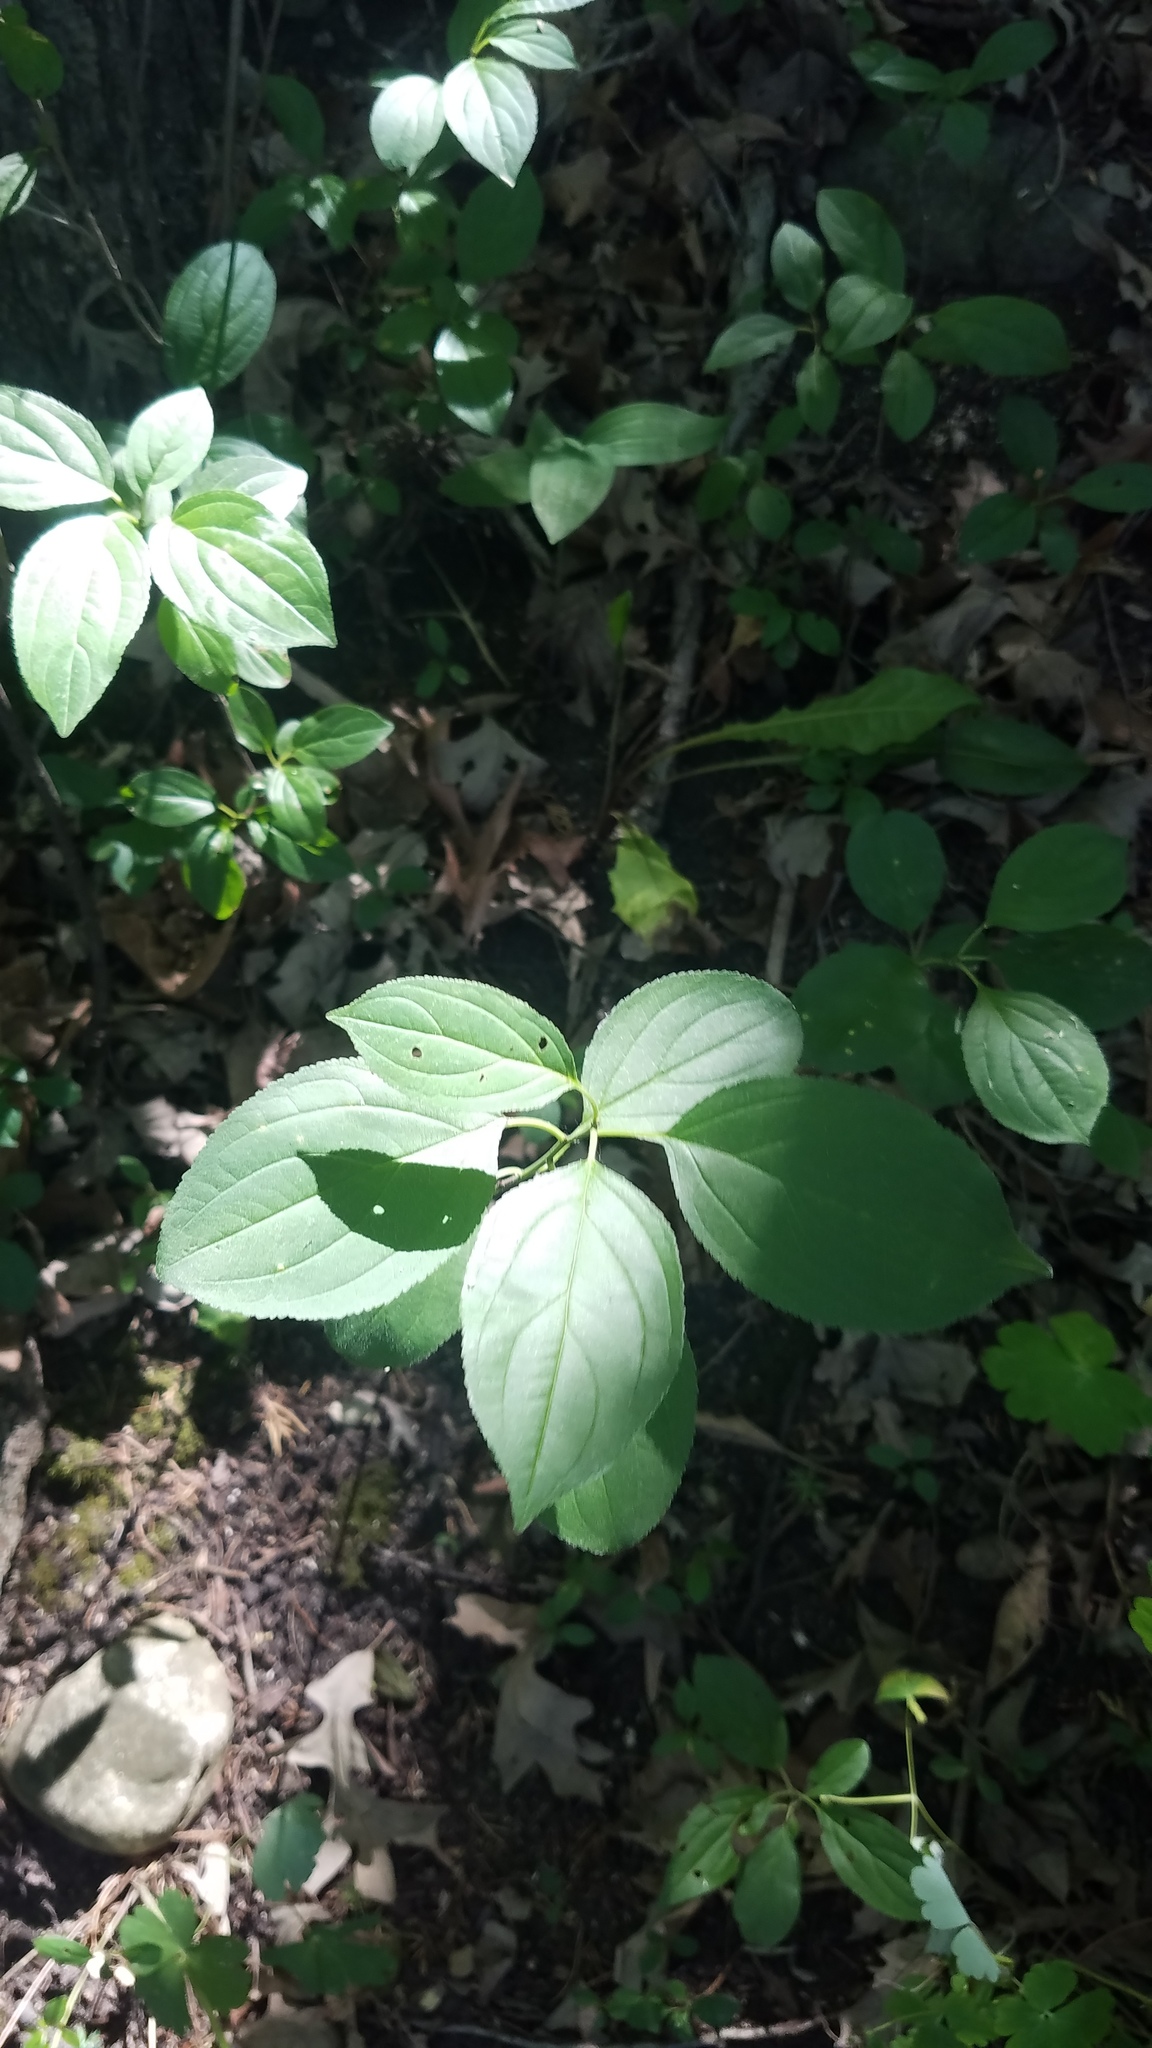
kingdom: Plantae
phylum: Tracheophyta
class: Magnoliopsida
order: Rosales
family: Rhamnaceae
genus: Rhamnus
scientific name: Rhamnus cathartica
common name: Common buckthorn
